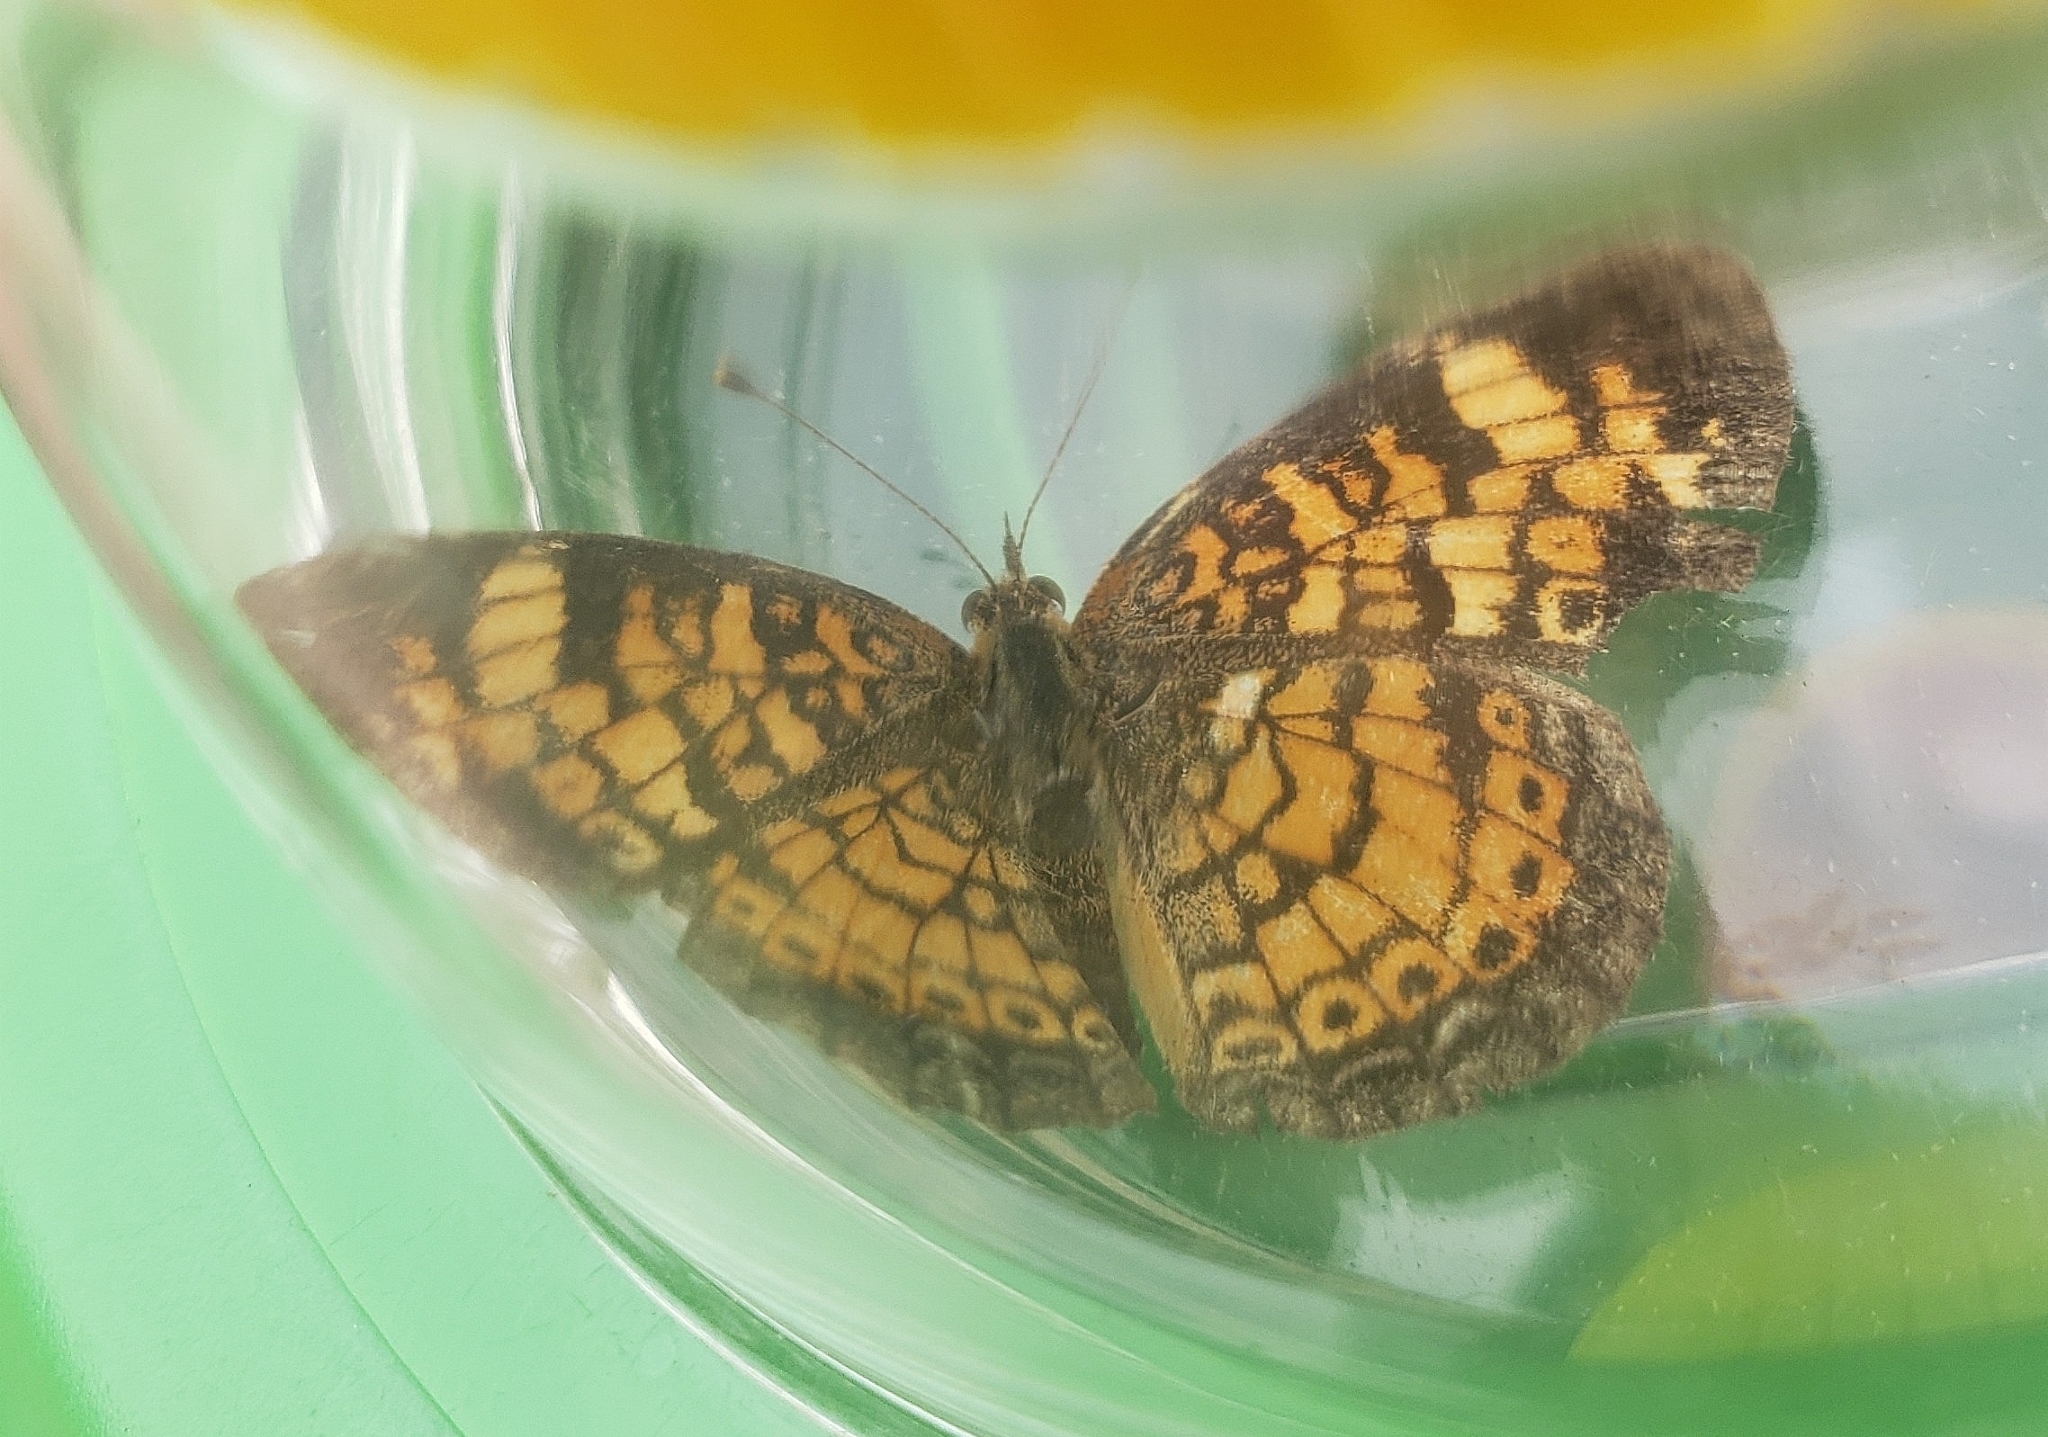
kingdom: Animalia
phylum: Arthropoda
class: Insecta
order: Lepidoptera
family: Nymphalidae
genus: Phyciodes
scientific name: Phyciodes tharos
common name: Pearl crescent
